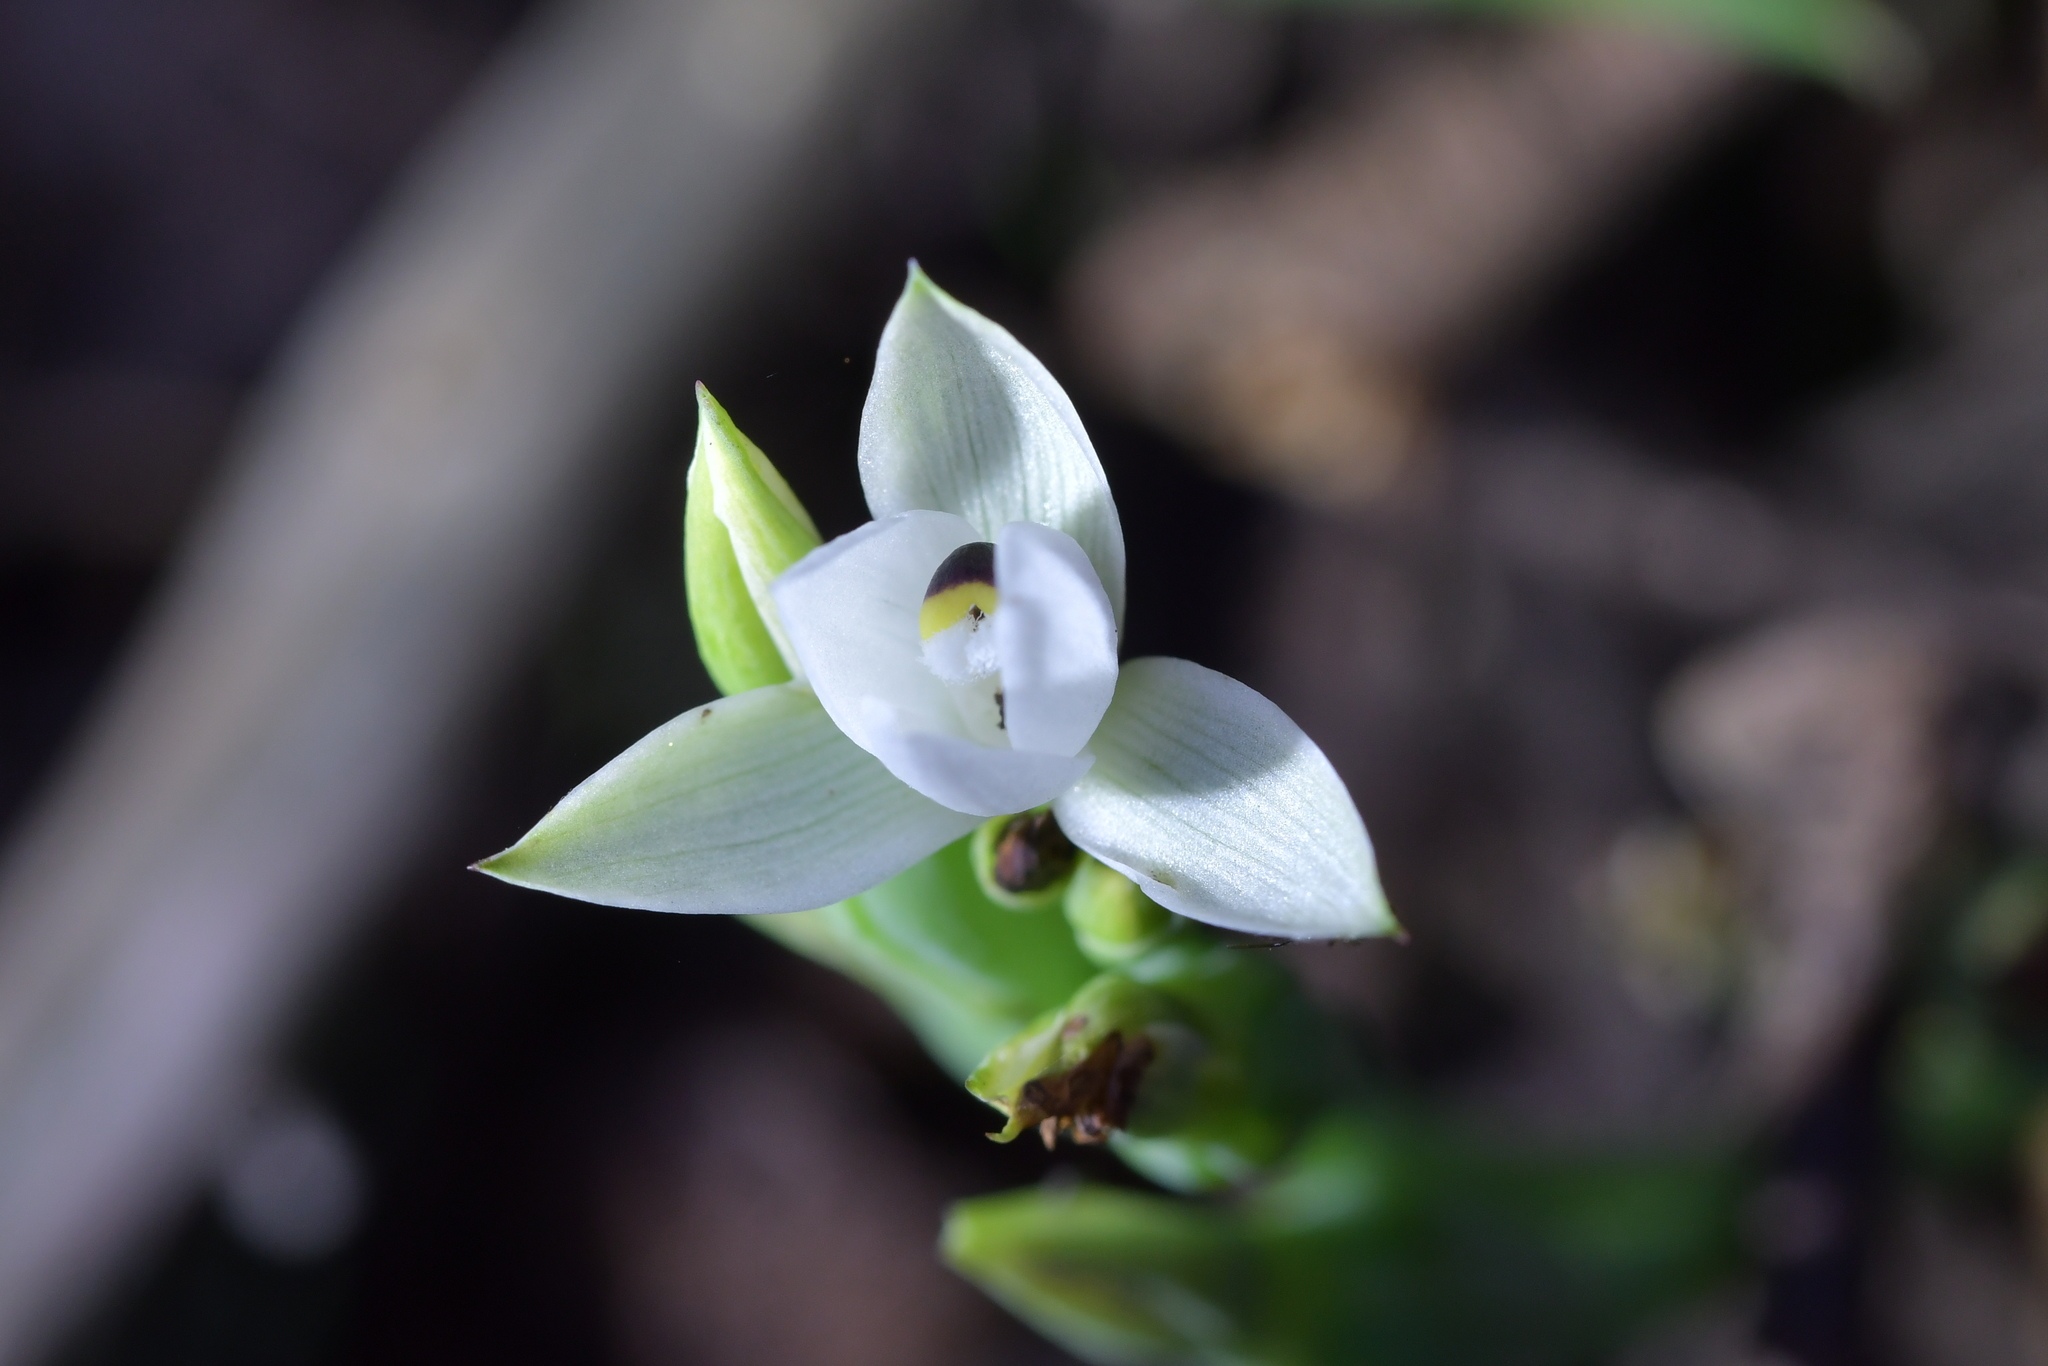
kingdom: Plantae
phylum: Tracheophyta
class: Liliopsida
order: Asparagales
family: Orchidaceae
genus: Thelymitra
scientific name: Thelymitra longifolia
